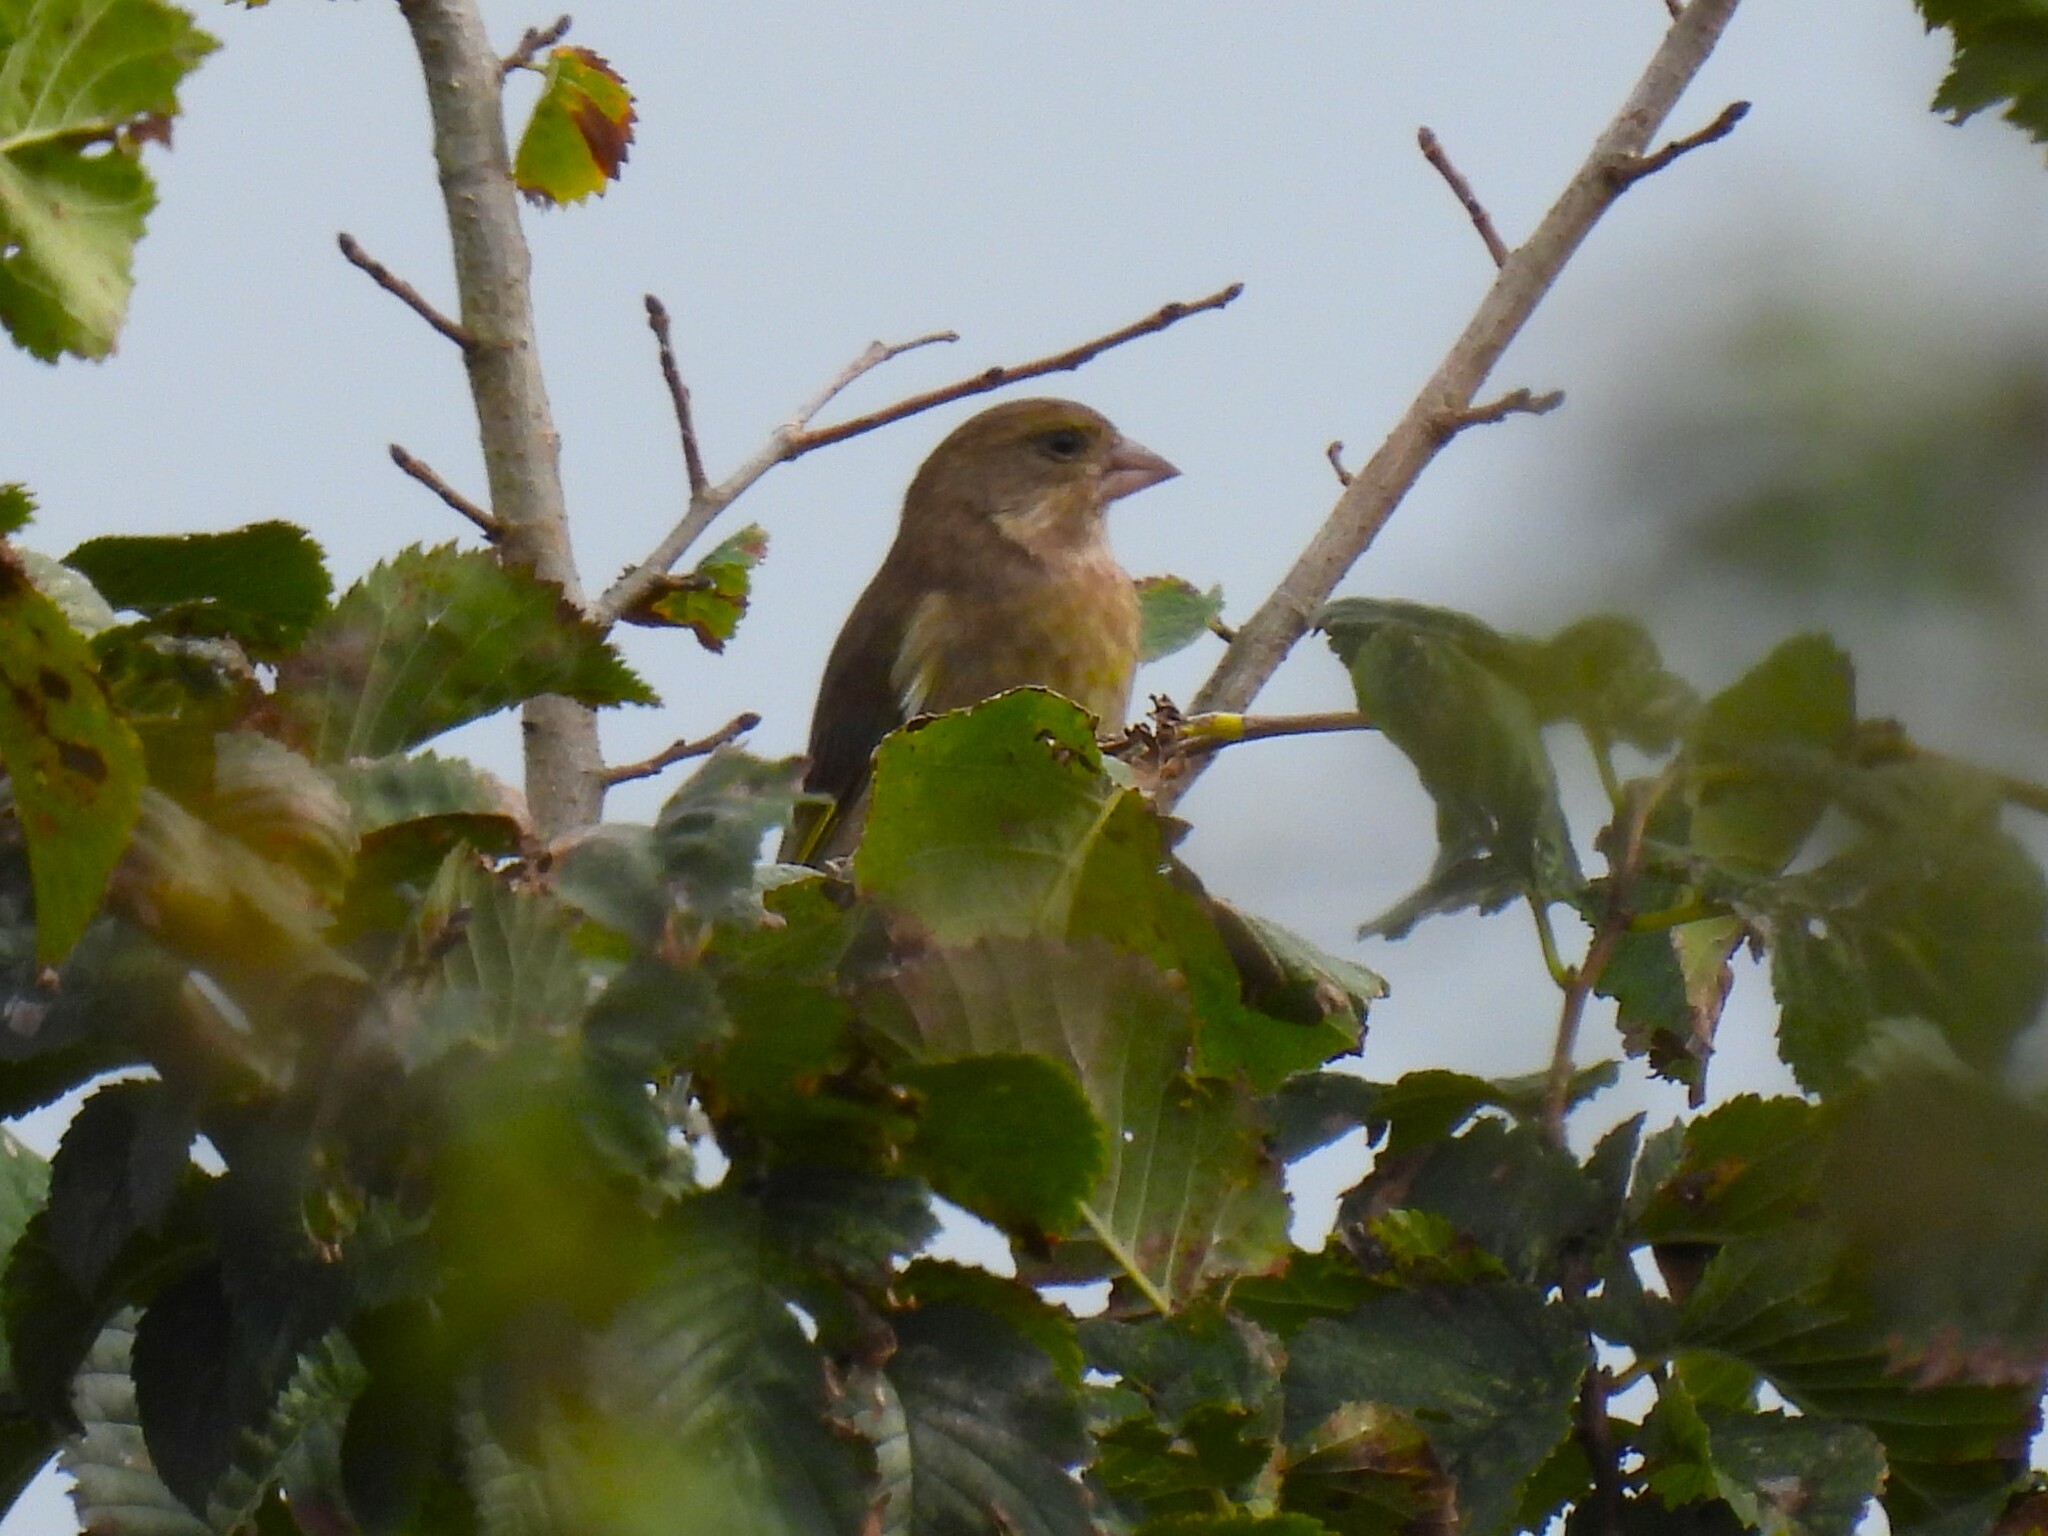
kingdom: Plantae
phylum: Tracheophyta
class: Liliopsida
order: Poales
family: Poaceae
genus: Chloris
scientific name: Chloris chloris
